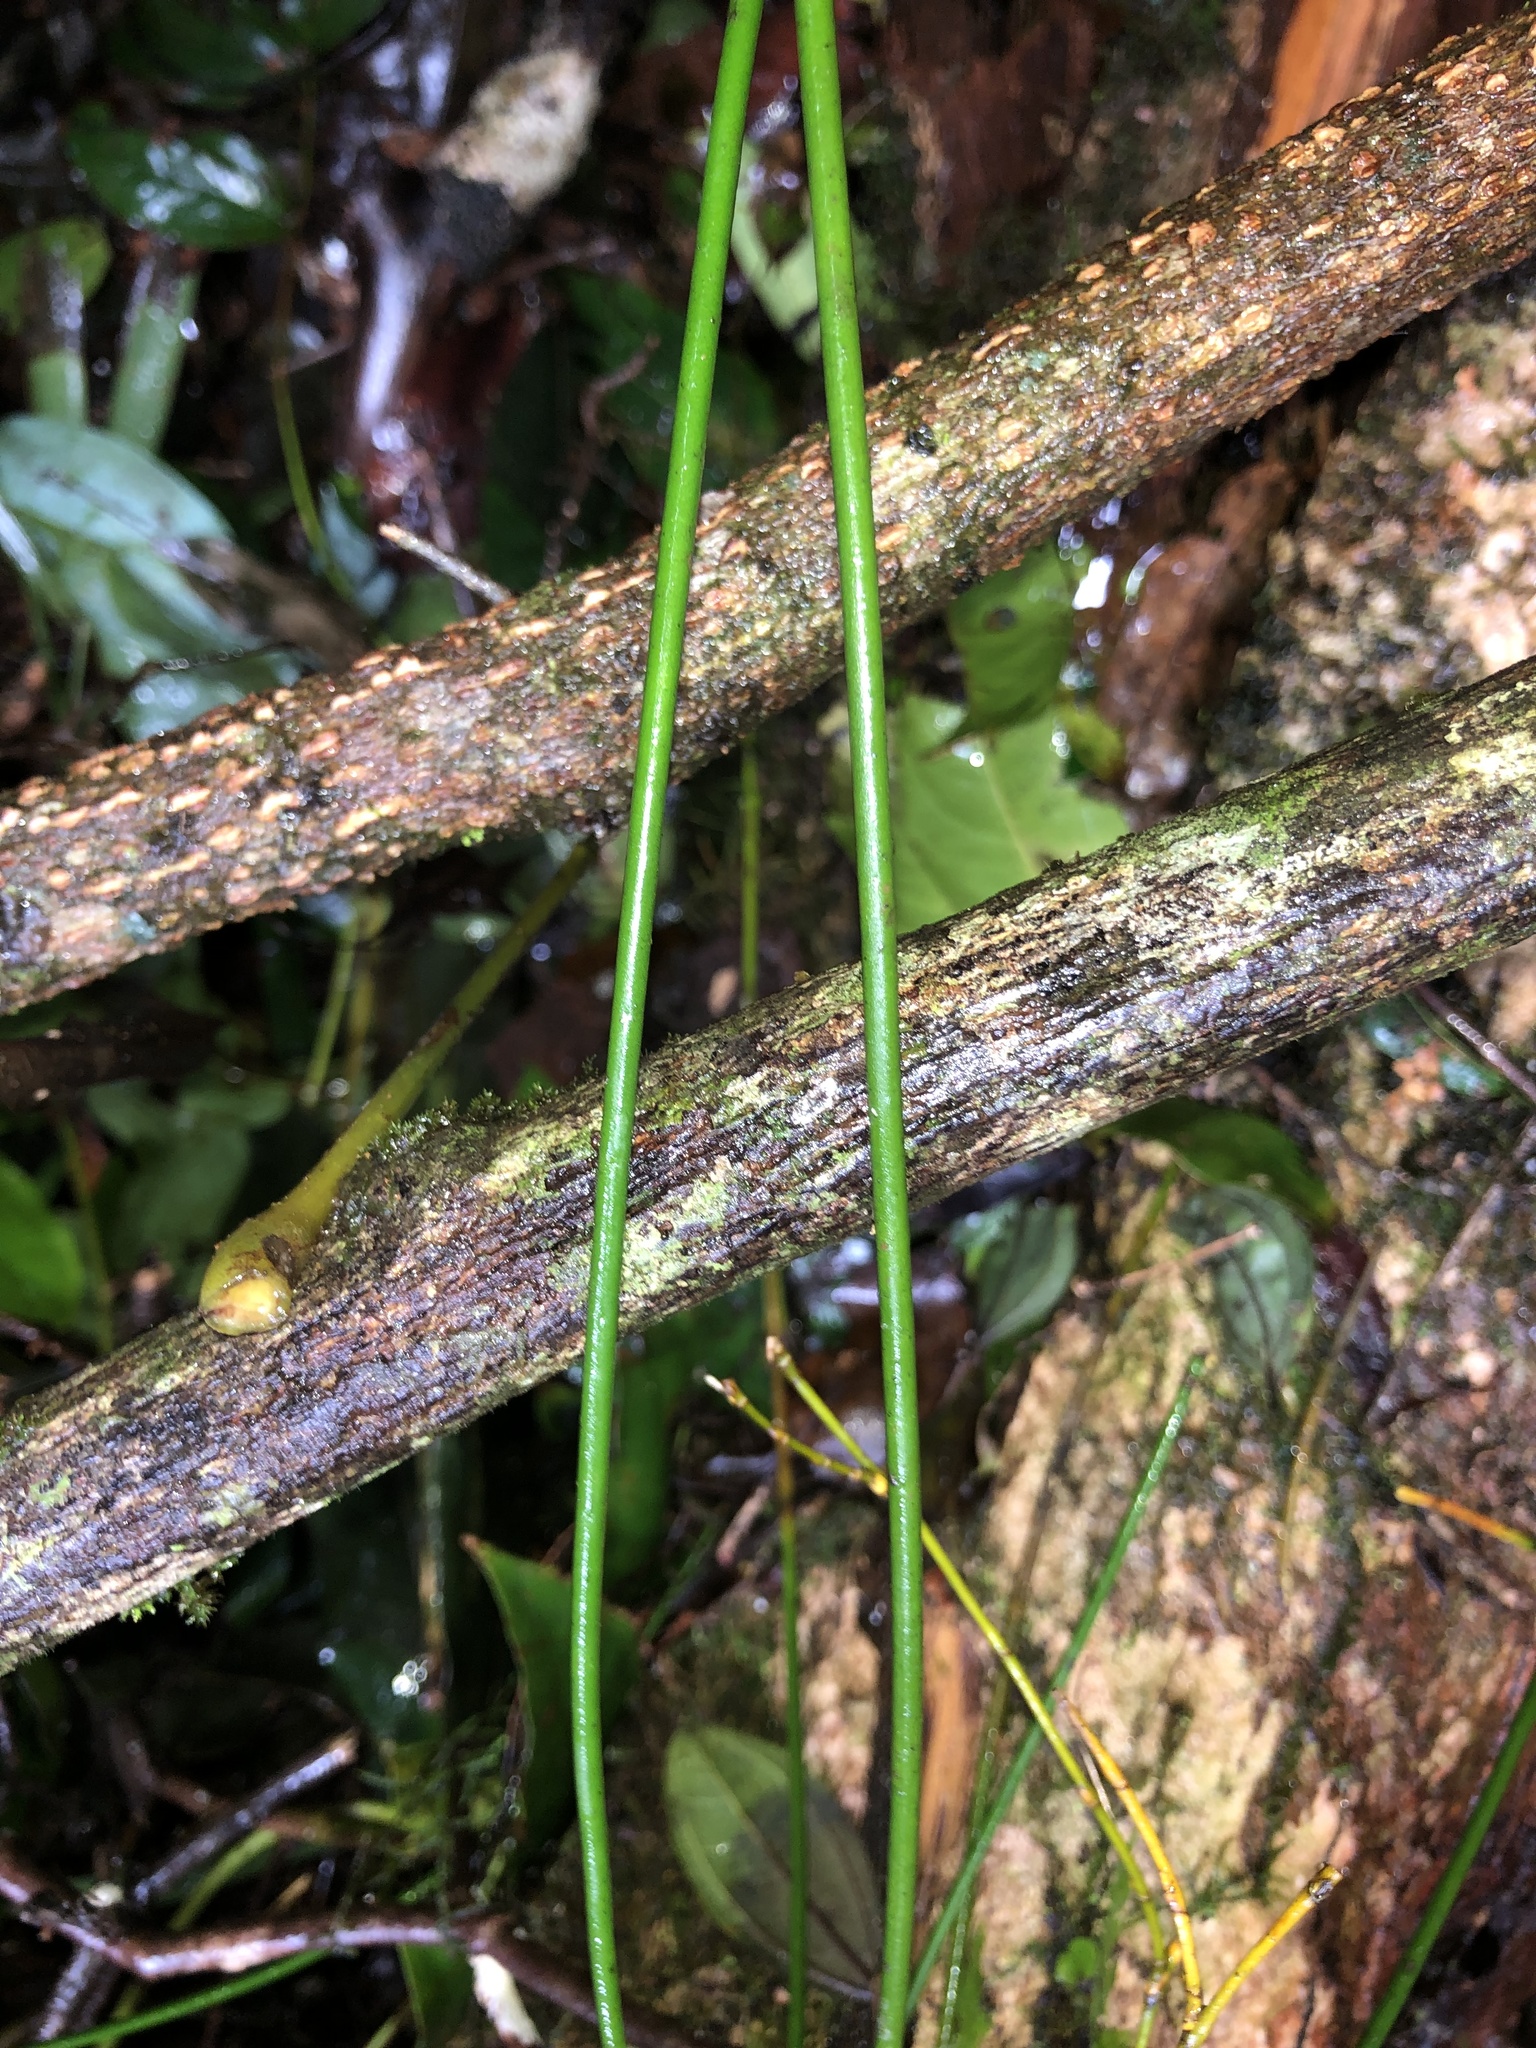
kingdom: Plantae
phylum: Tracheophyta
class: Liliopsida
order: Asparagales
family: Orchidaceae
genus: Dendrobium
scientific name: Dendrobium teretifolium
